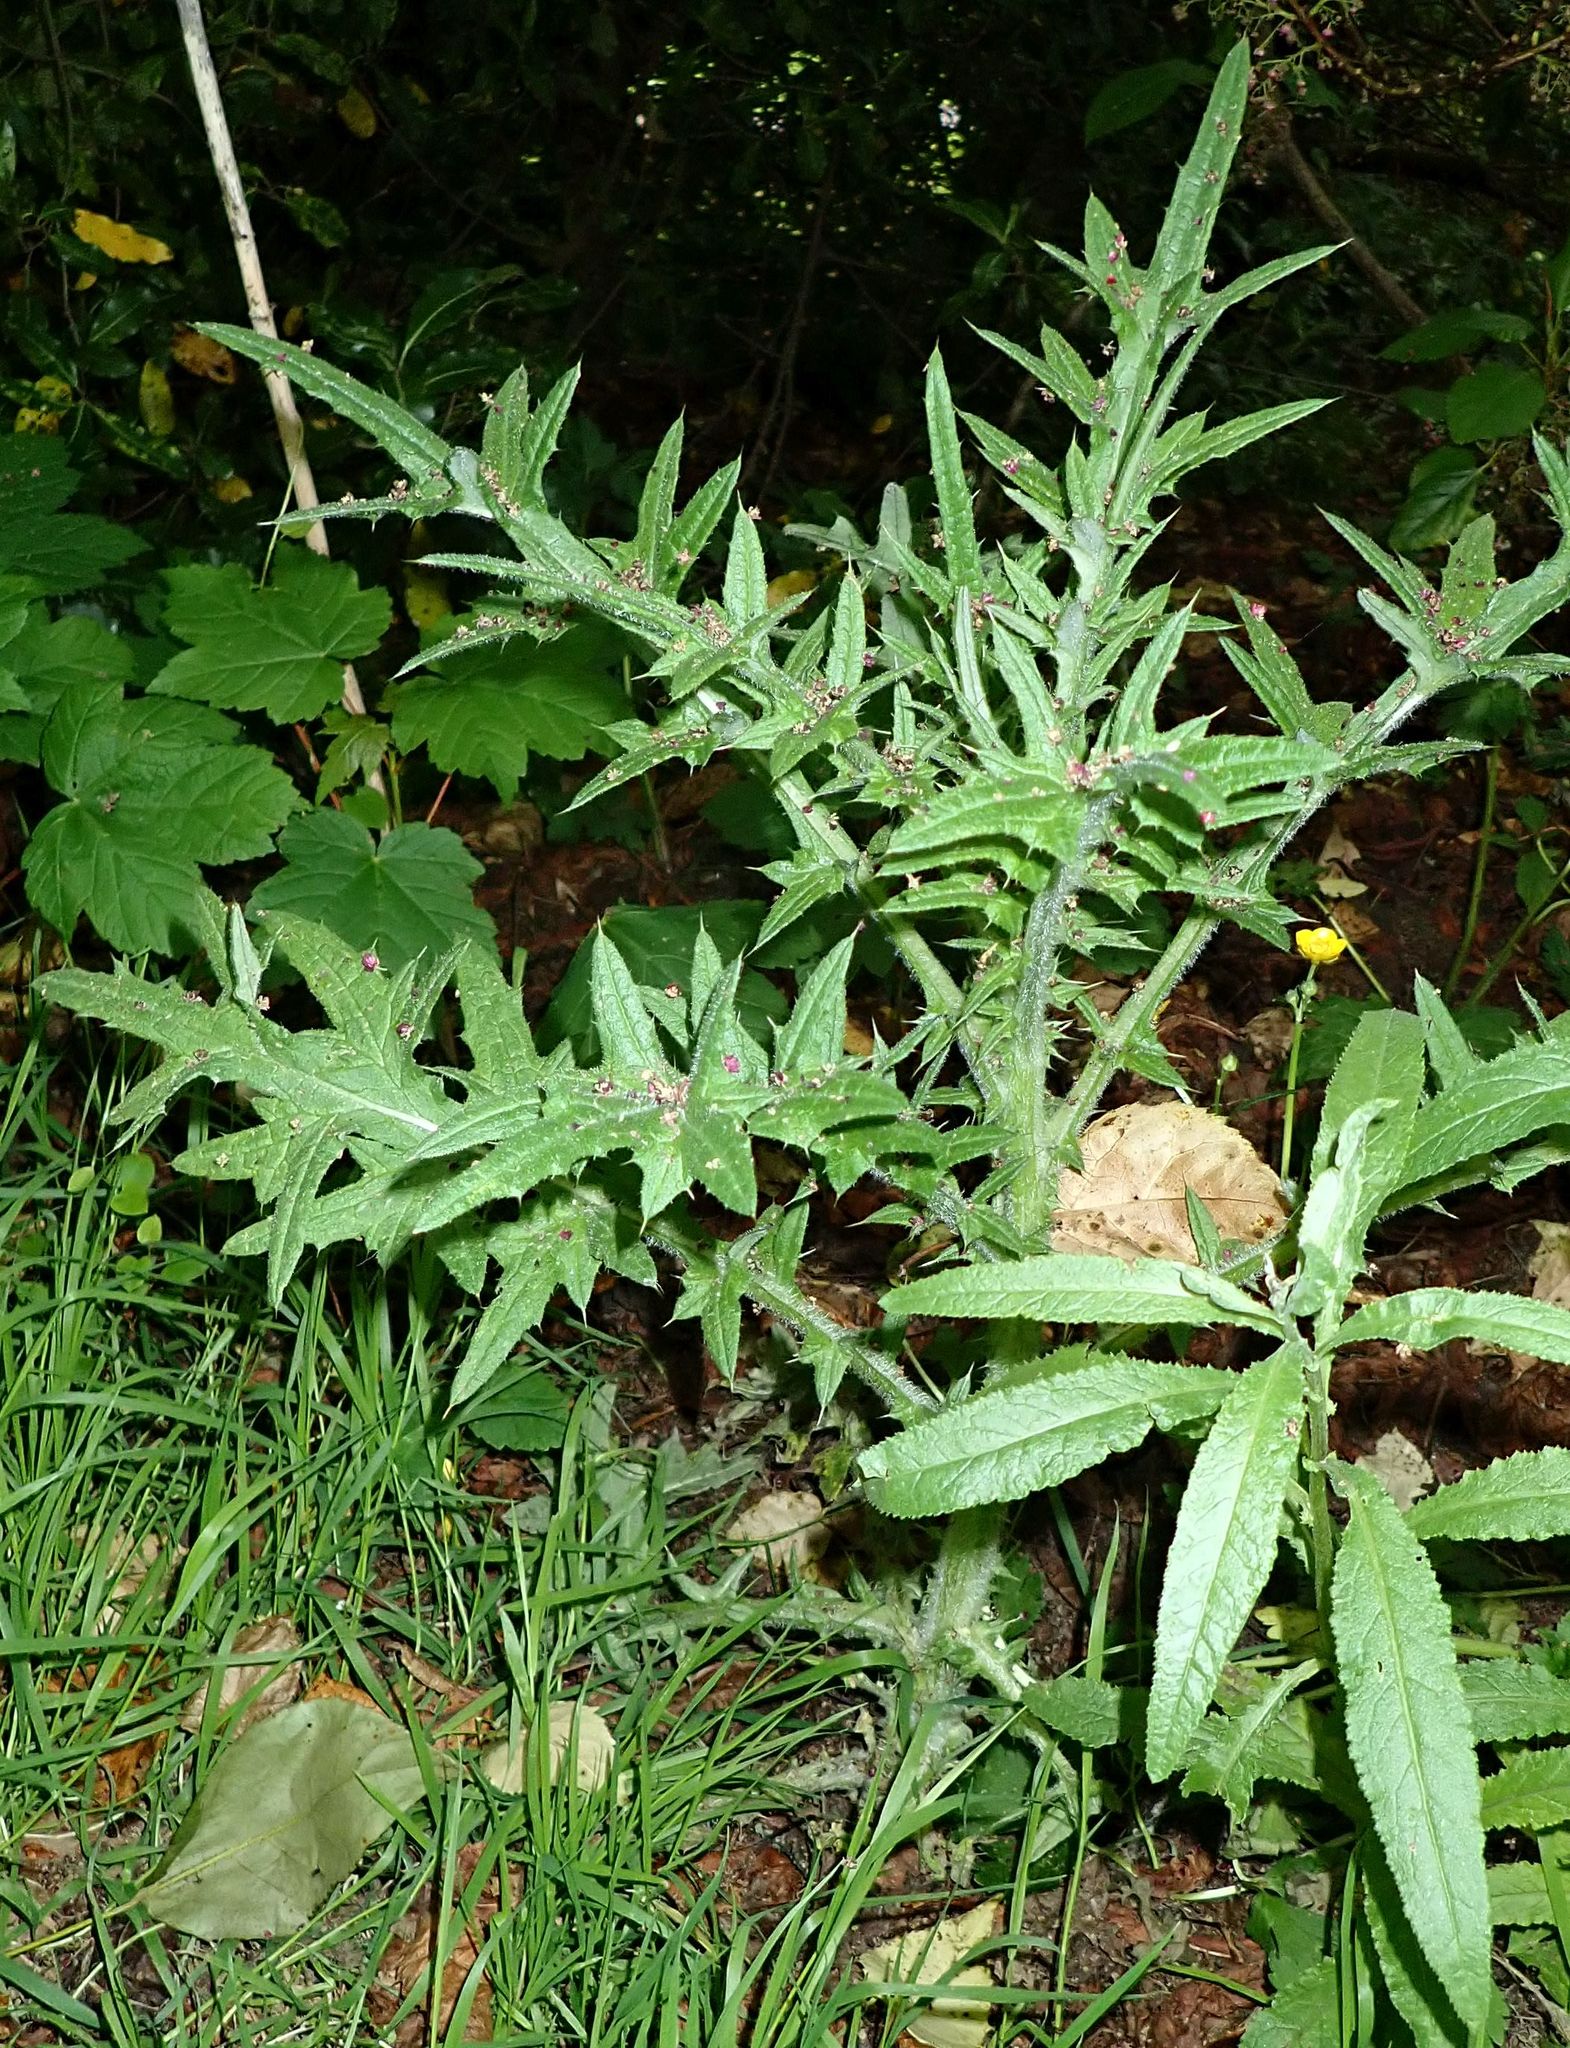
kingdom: Plantae
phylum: Tracheophyta
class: Magnoliopsida
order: Asterales
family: Asteraceae
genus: Cirsium
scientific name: Cirsium vulgare
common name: Bull thistle
